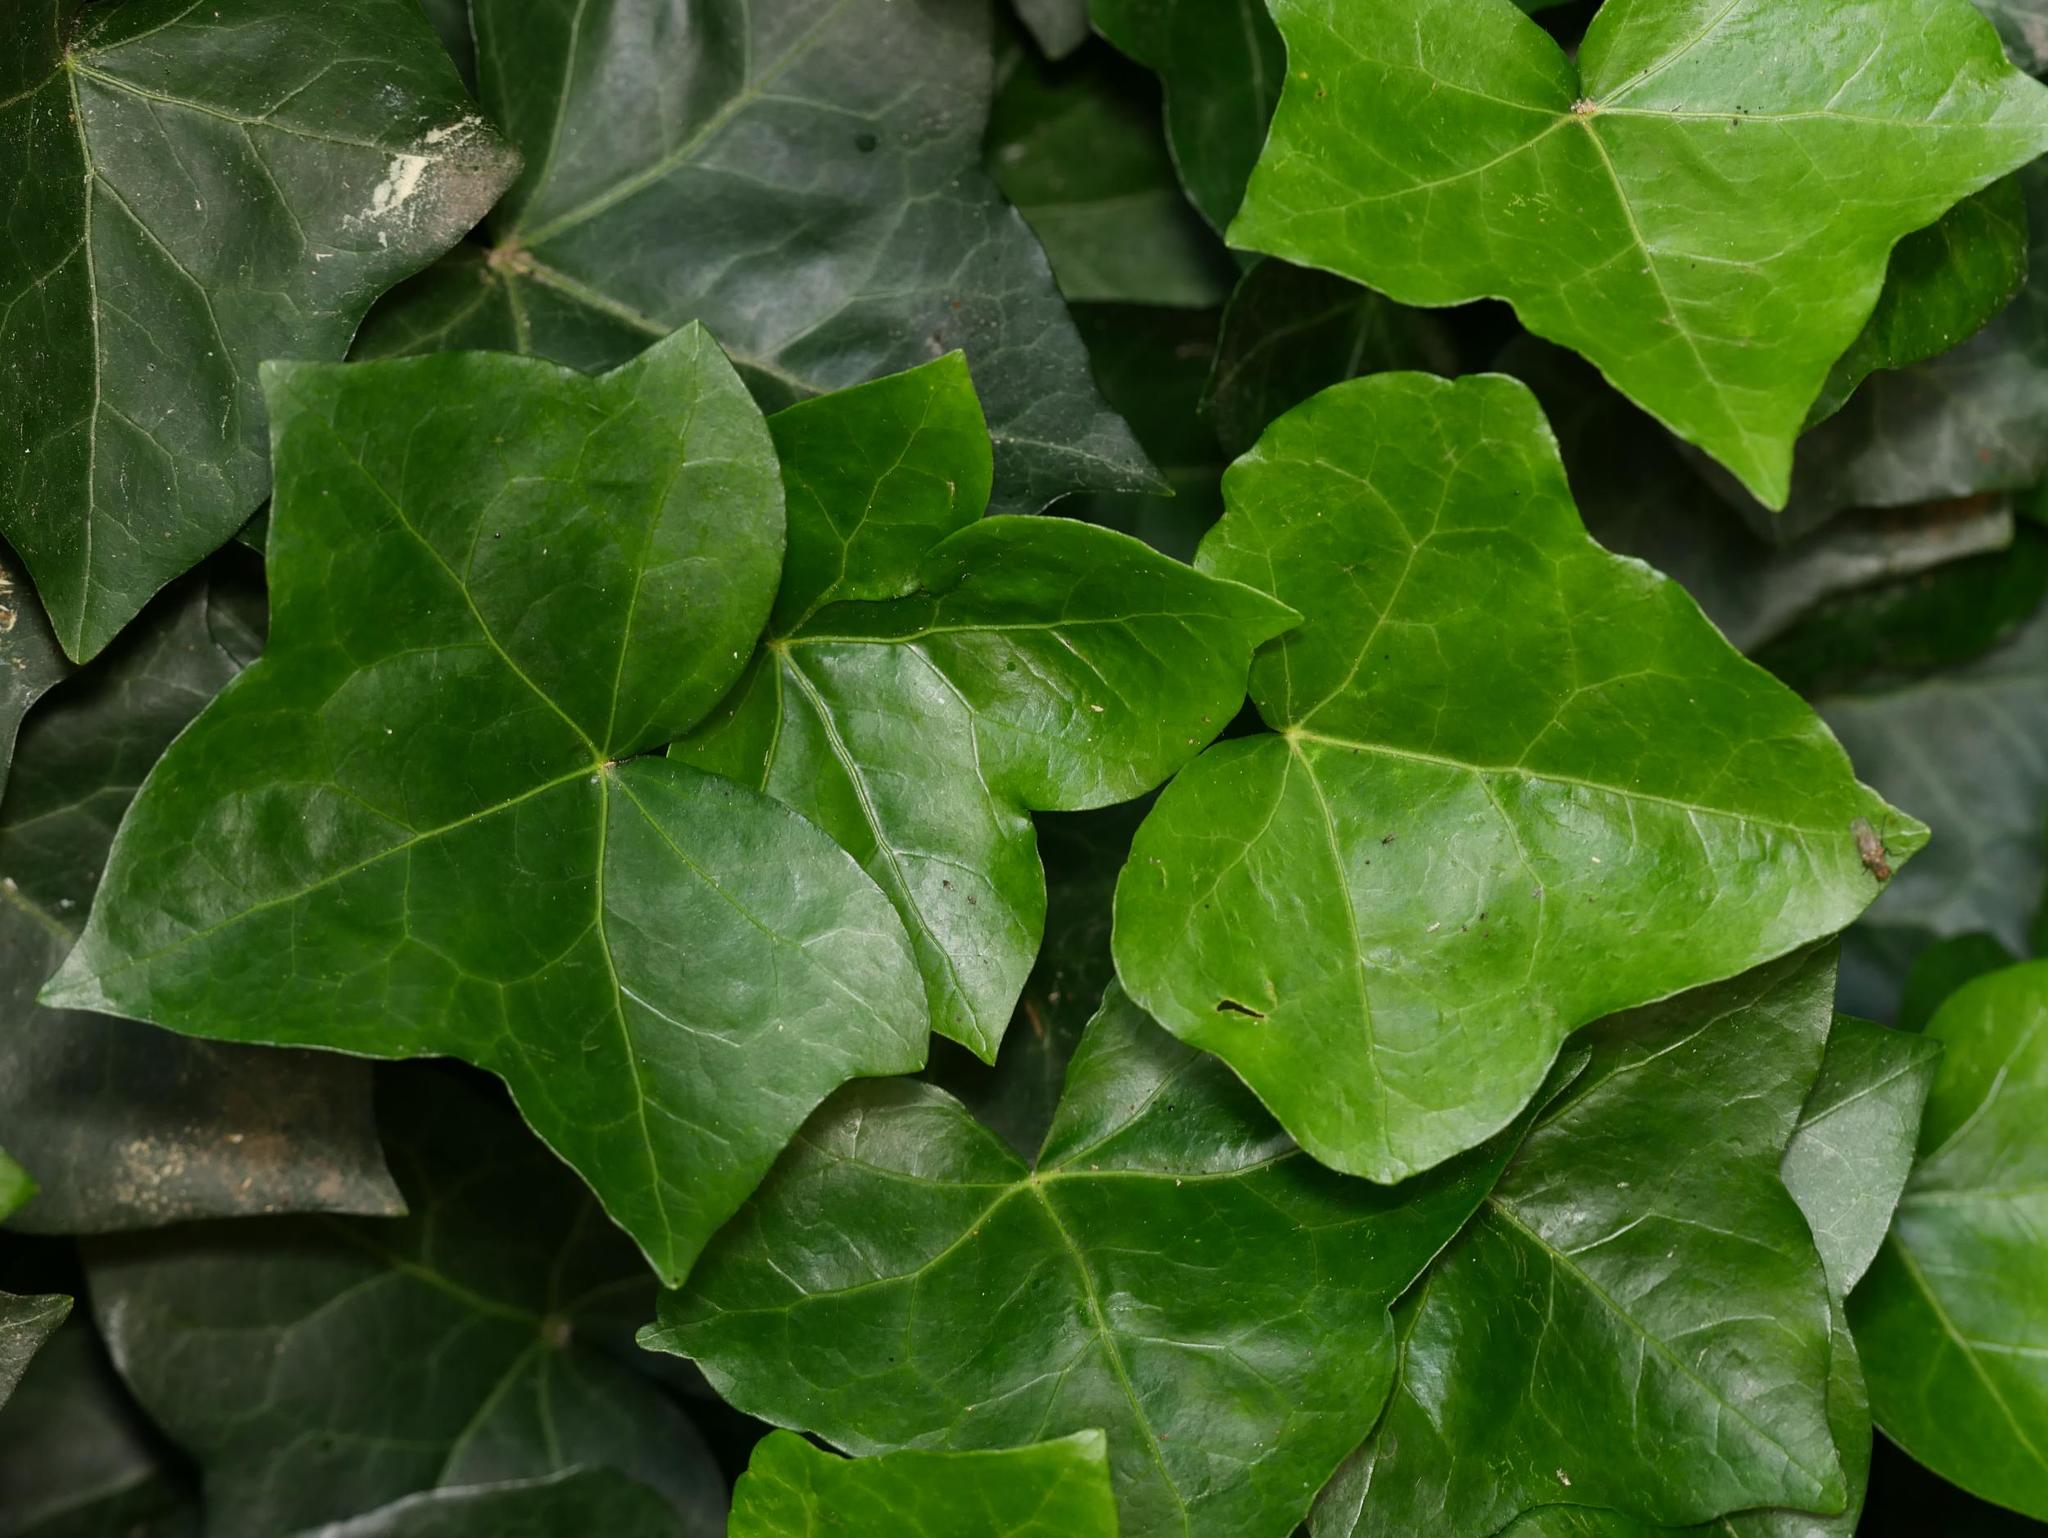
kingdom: Plantae
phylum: Tracheophyta
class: Magnoliopsida
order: Apiales
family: Araliaceae
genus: Hedera
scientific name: Hedera helix
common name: Ivy
